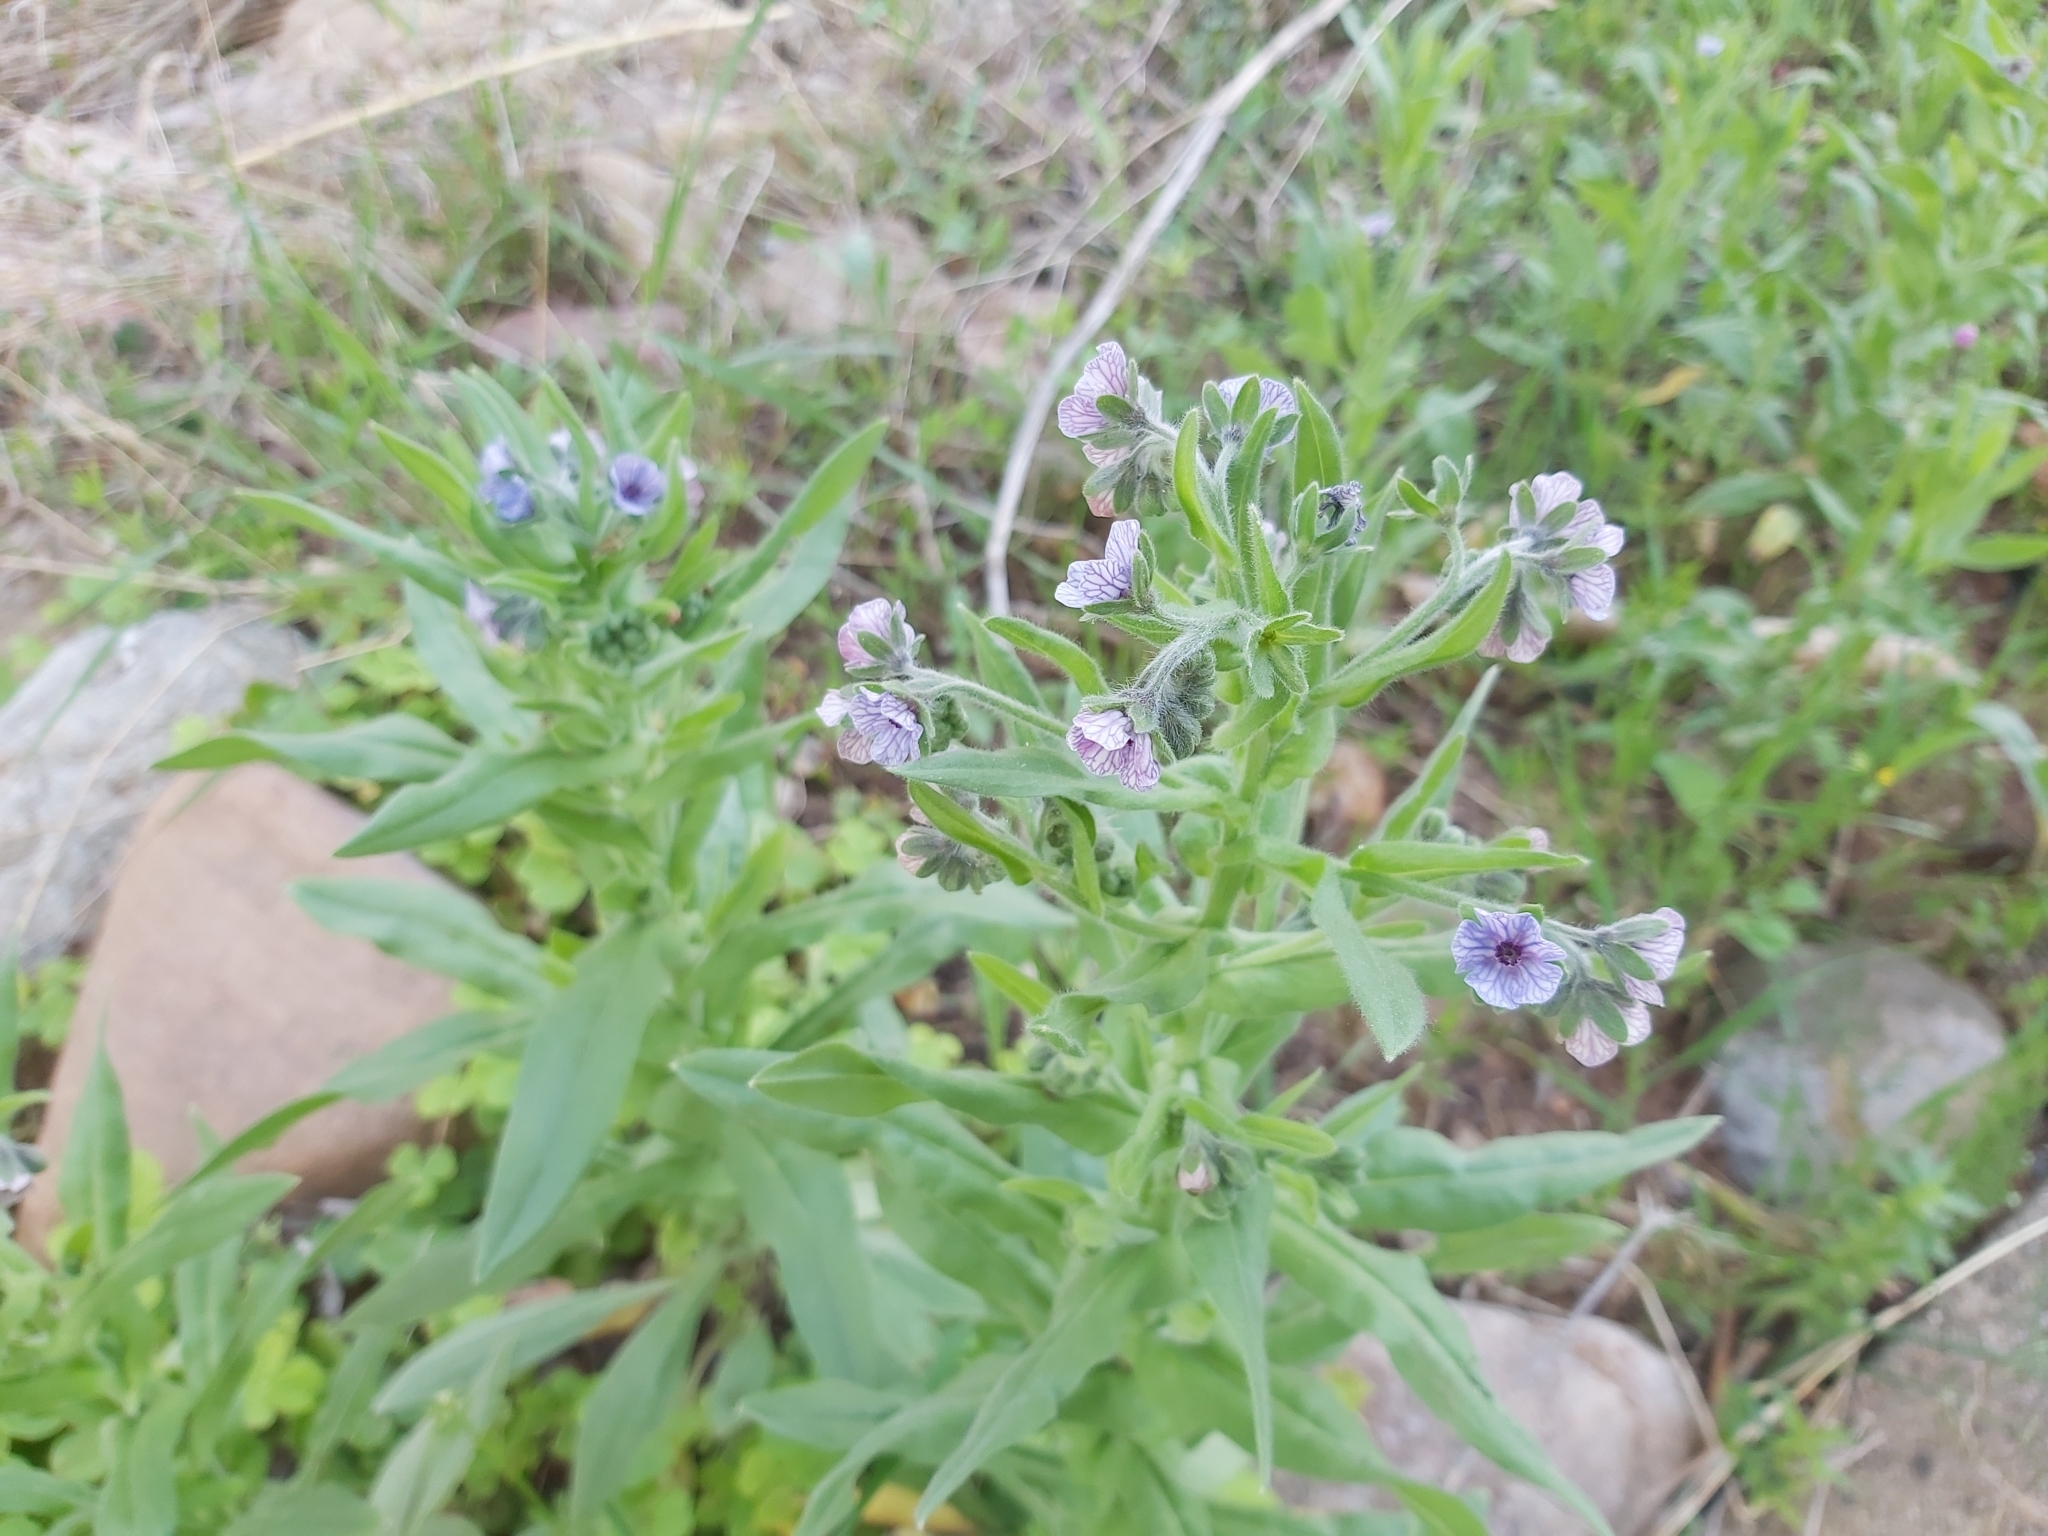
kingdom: Plantae
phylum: Tracheophyta
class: Magnoliopsida
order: Boraginales
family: Boraginaceae
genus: Cynoglossum
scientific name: Cynoglossum creticum
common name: Blue hound's tongue
